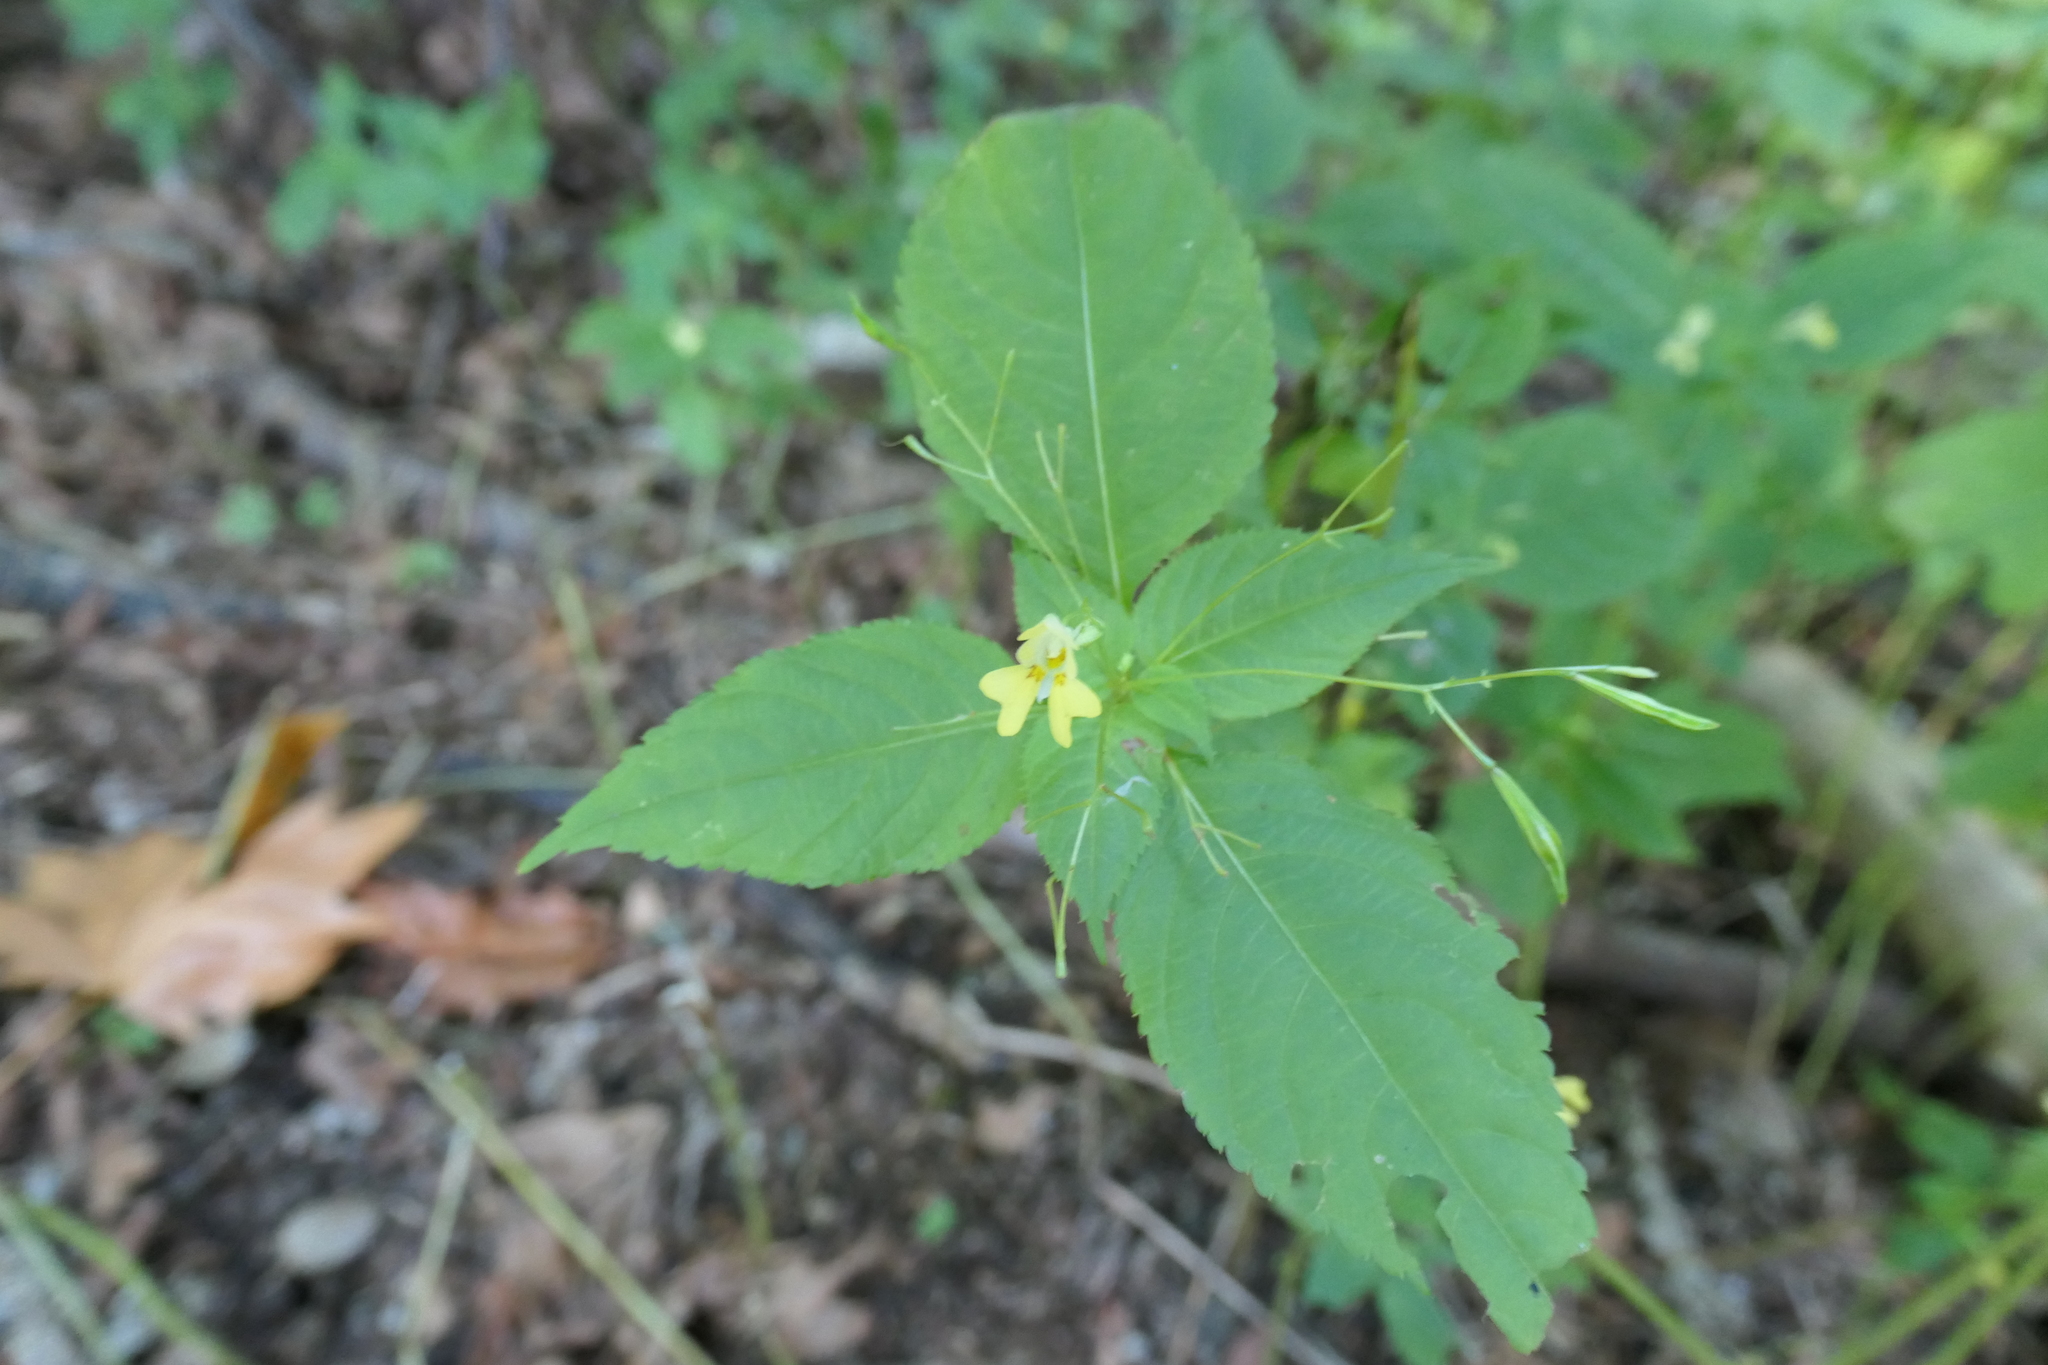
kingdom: Plantae
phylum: Tracheophyta
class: Magnoliopsida
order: Ericales
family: Balsaminaceae
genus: Impatiens
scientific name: Impatiens parviflora
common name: Small balsam
